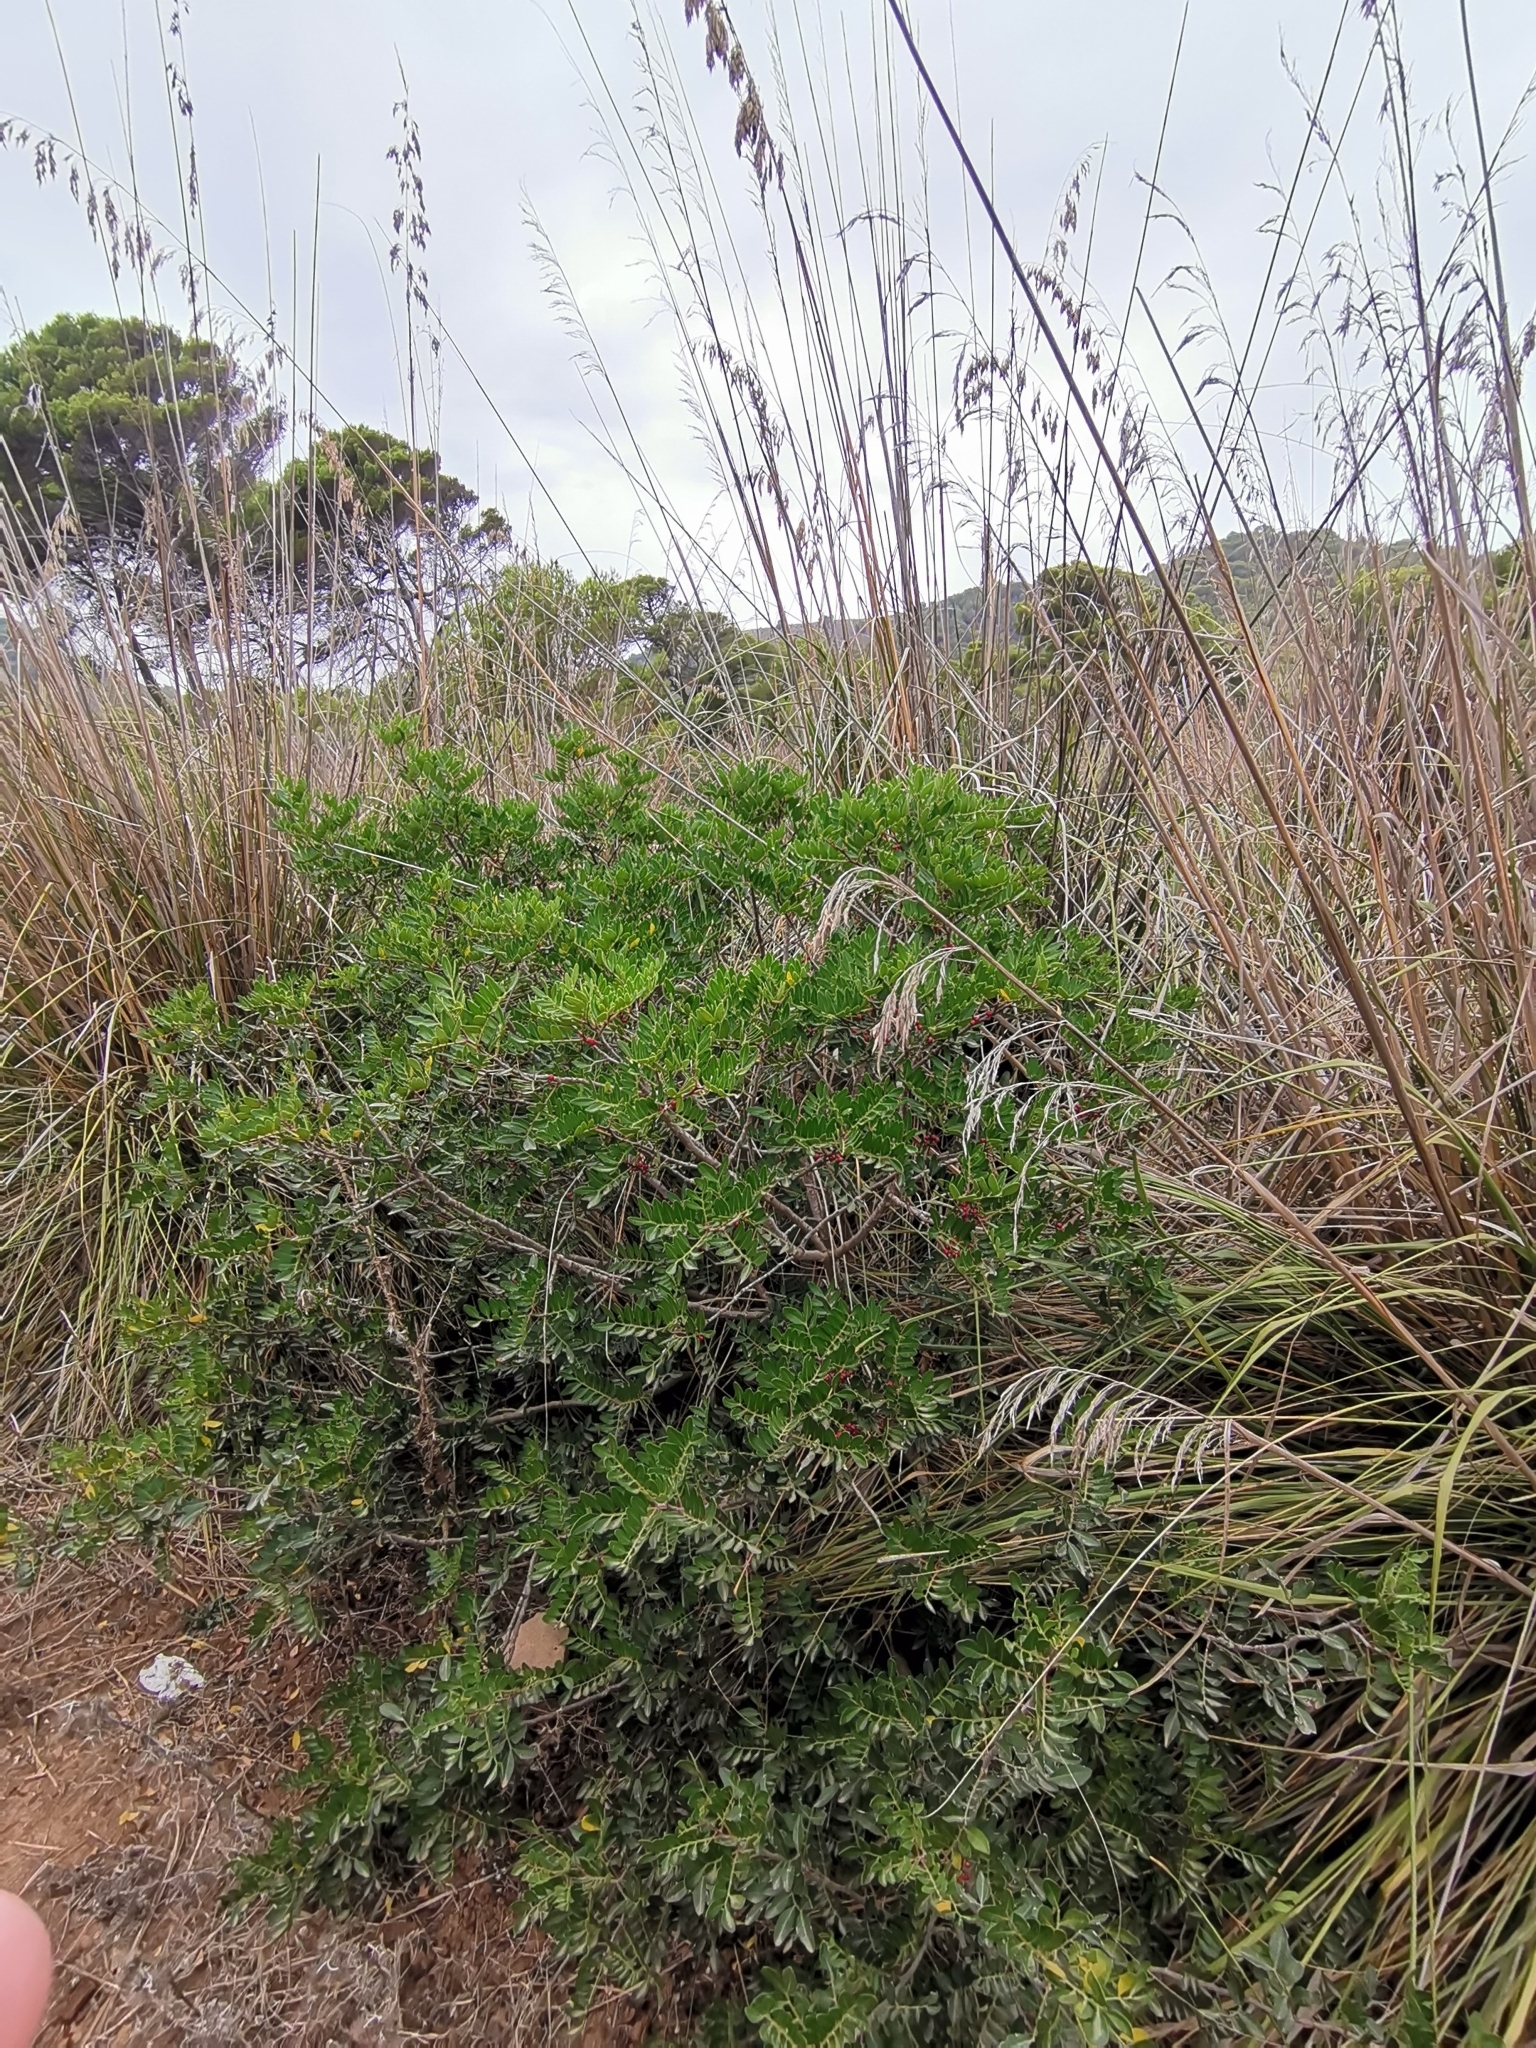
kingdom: Plantae
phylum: Tracheophyta
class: Magnoliopsida
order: Sapindales
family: Anacardiaceae
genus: Pistacia
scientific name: Pistacia lentiscus
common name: Lentisk
